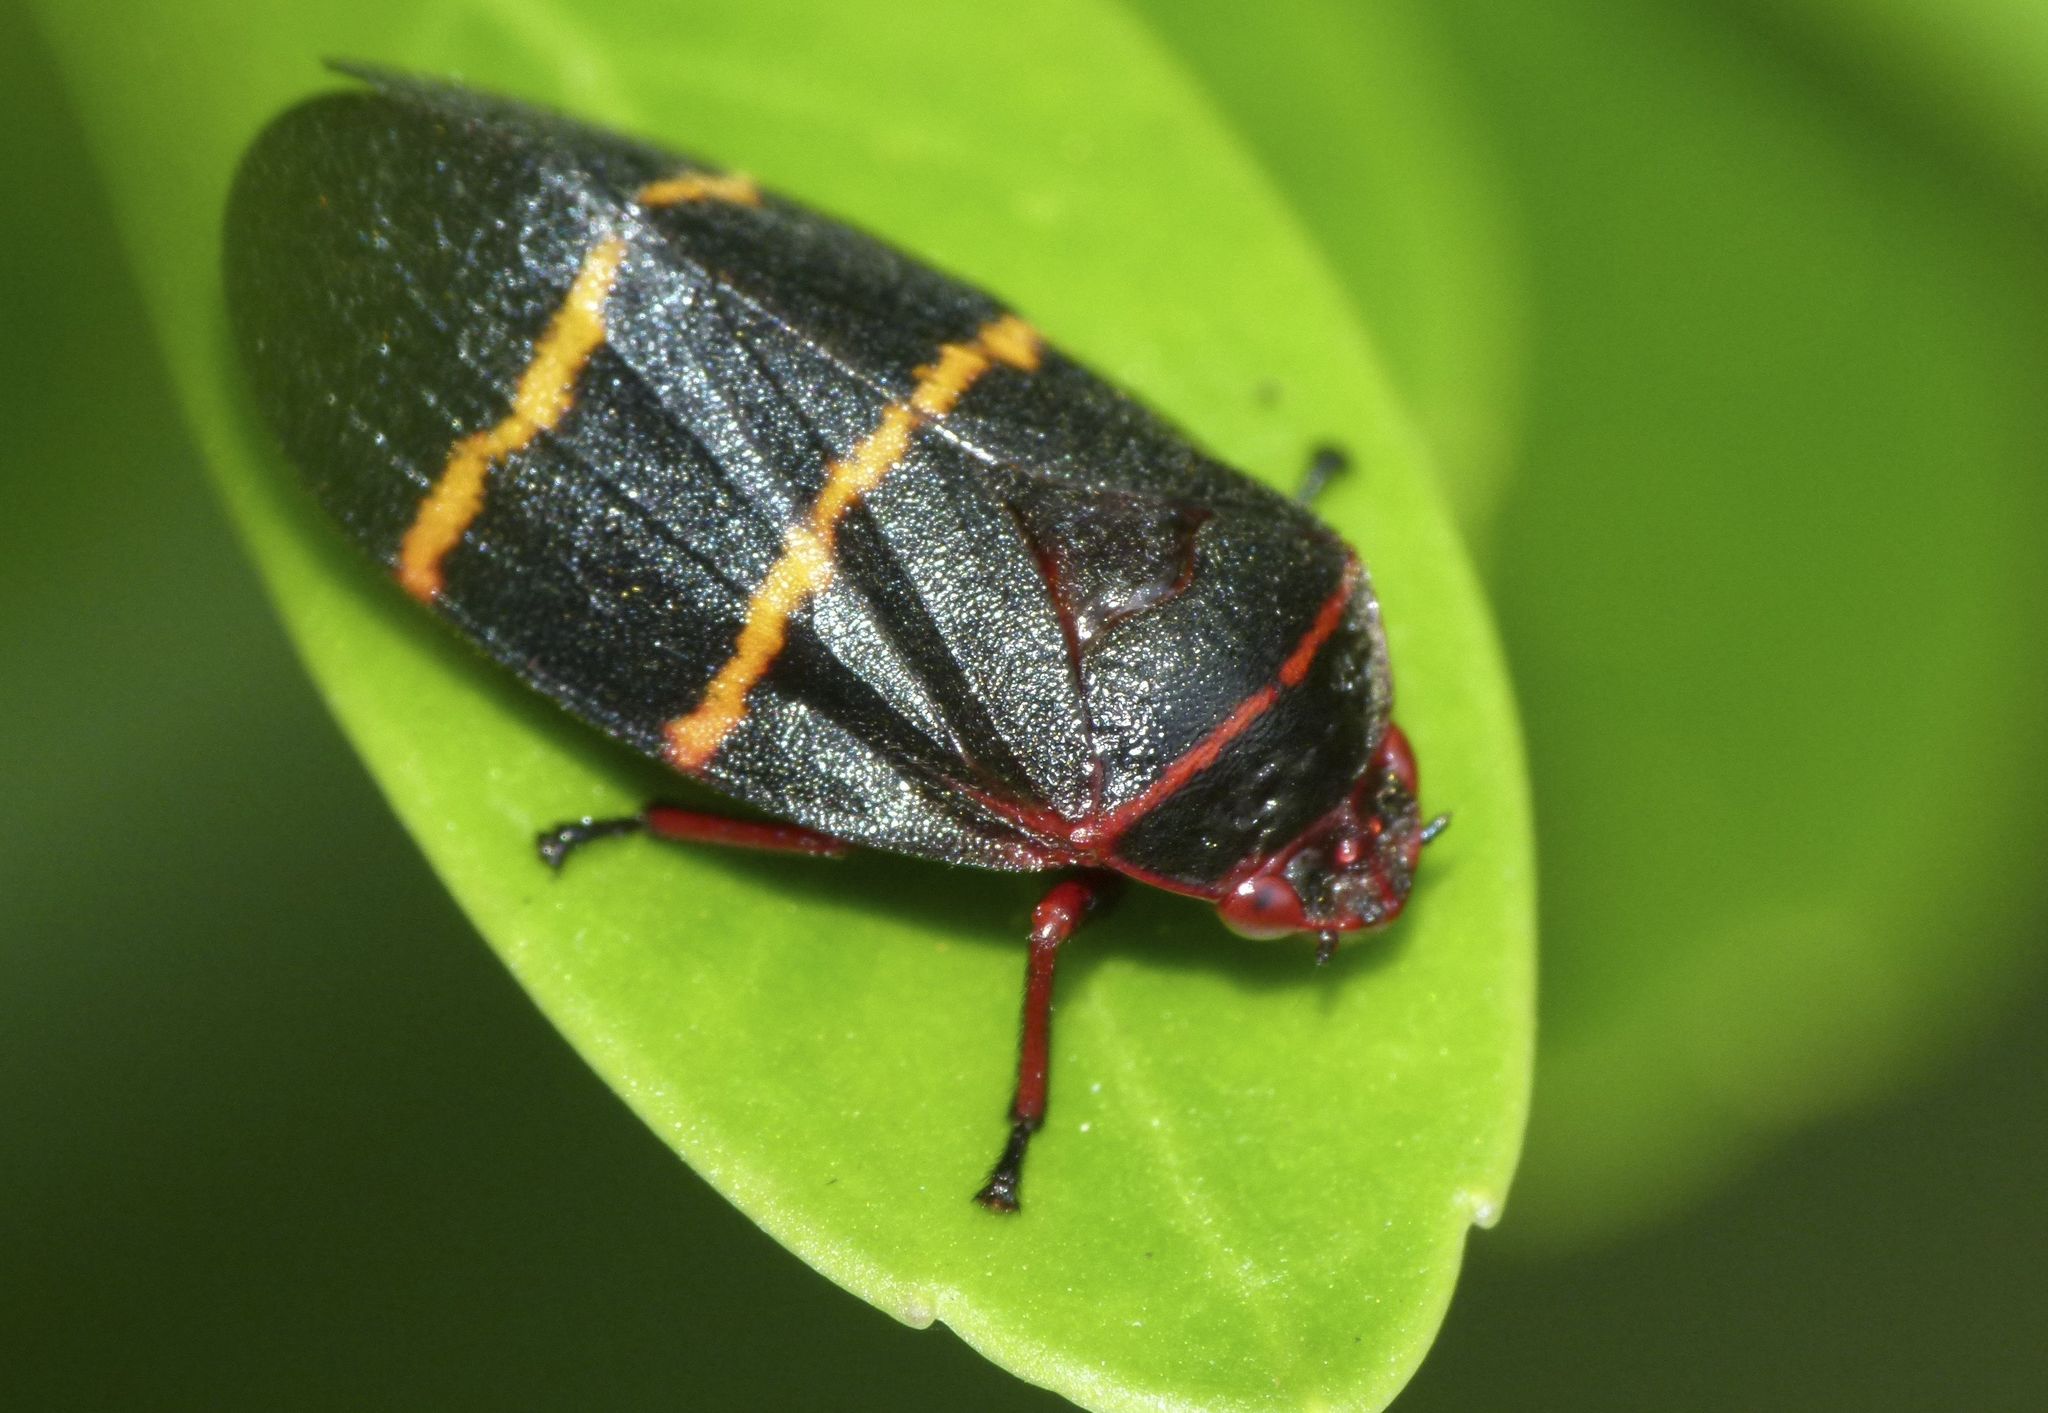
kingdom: Animalia
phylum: Arthropoda
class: Insecta
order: Hemiptera
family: Cercopidae
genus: Prosapia
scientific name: Prosapia bicincta
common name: Twolined spittlebug
